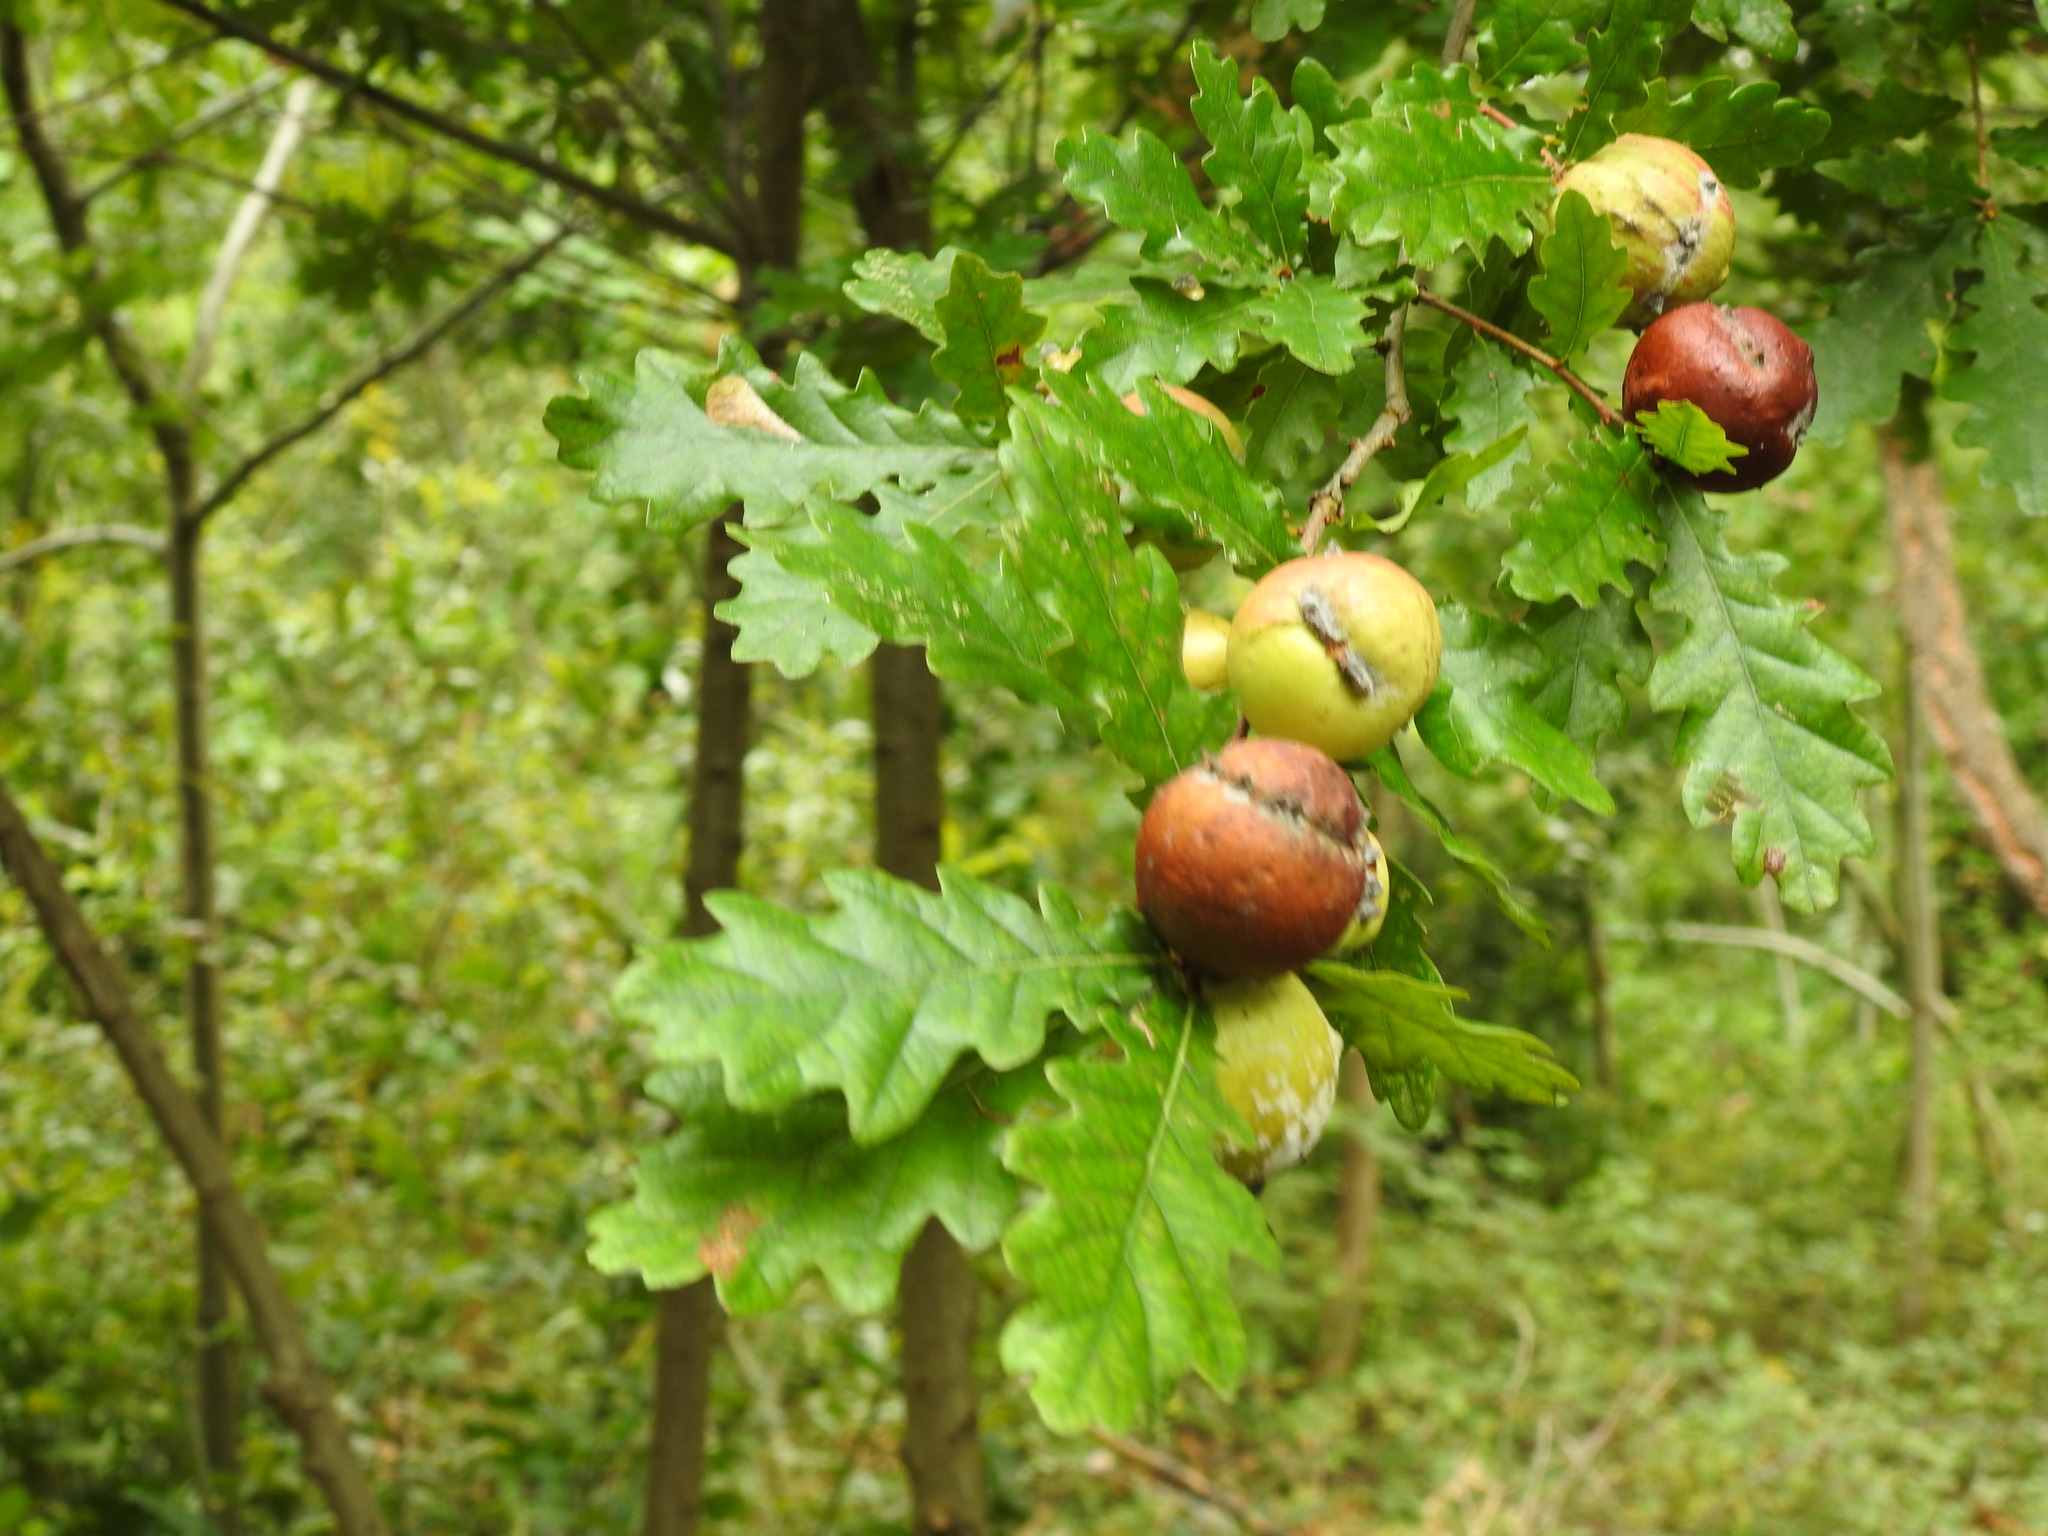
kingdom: Animalia
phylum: Arthropoda
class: Insecta
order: Hymenoptera
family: Cynipidae
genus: Andricus
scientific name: Andricus quercustozae
